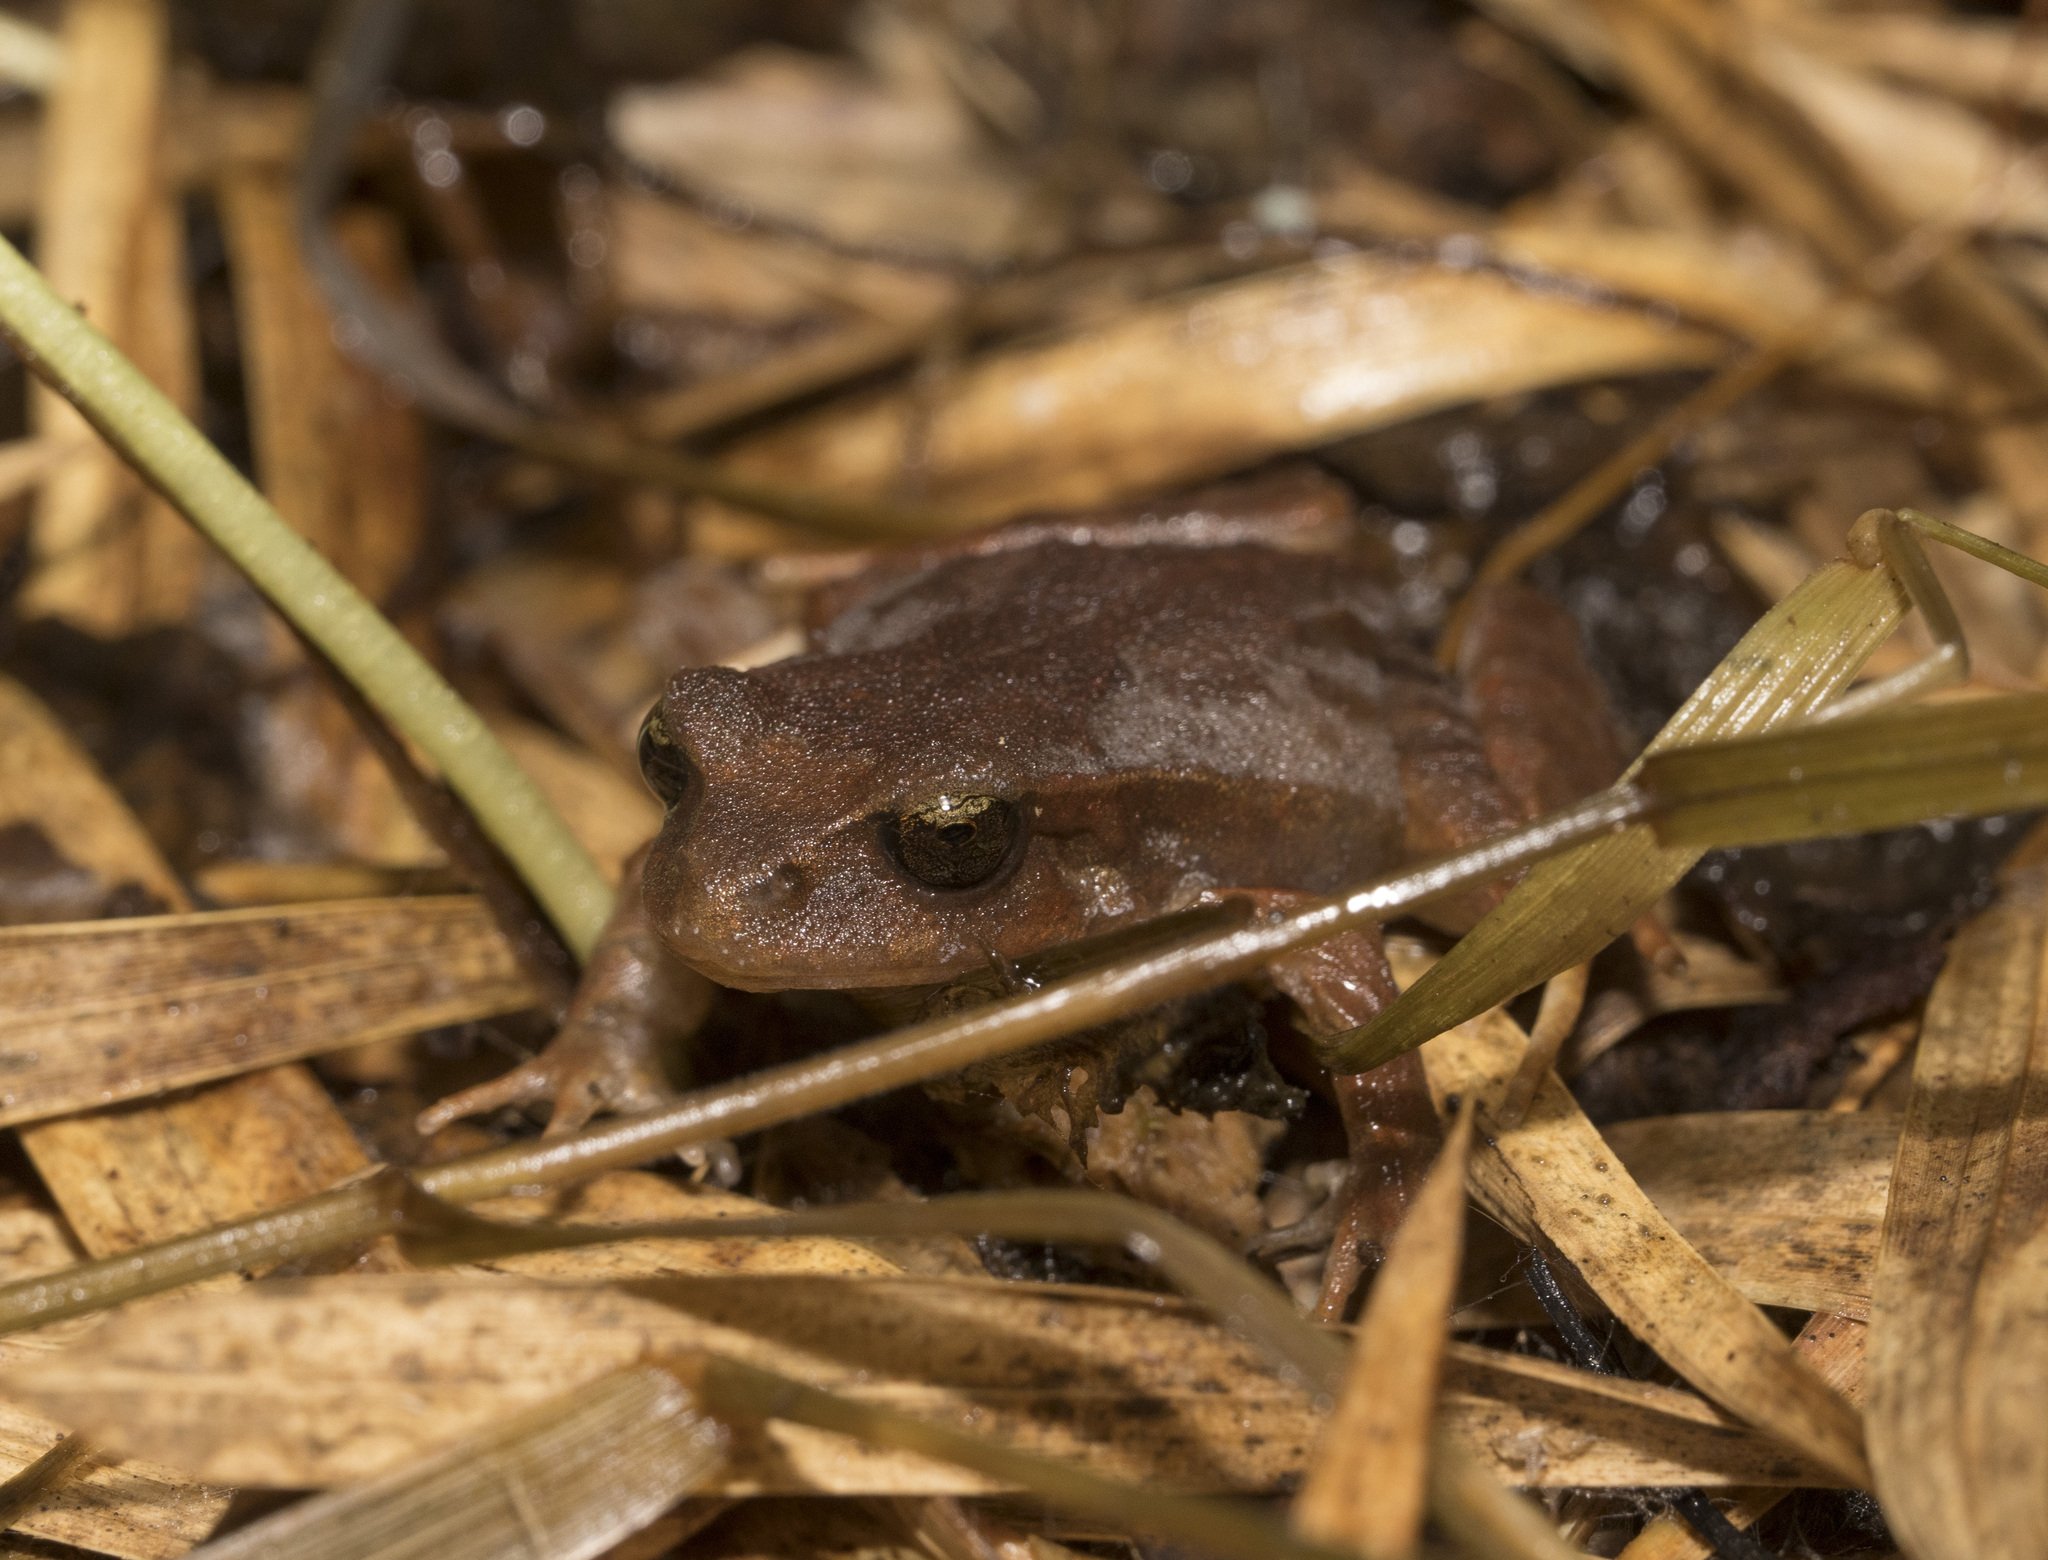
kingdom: Animalia
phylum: Chordata
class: Amphibia
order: Anura
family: Alsodidae
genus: Eupsophus
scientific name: Eupsophus altor
